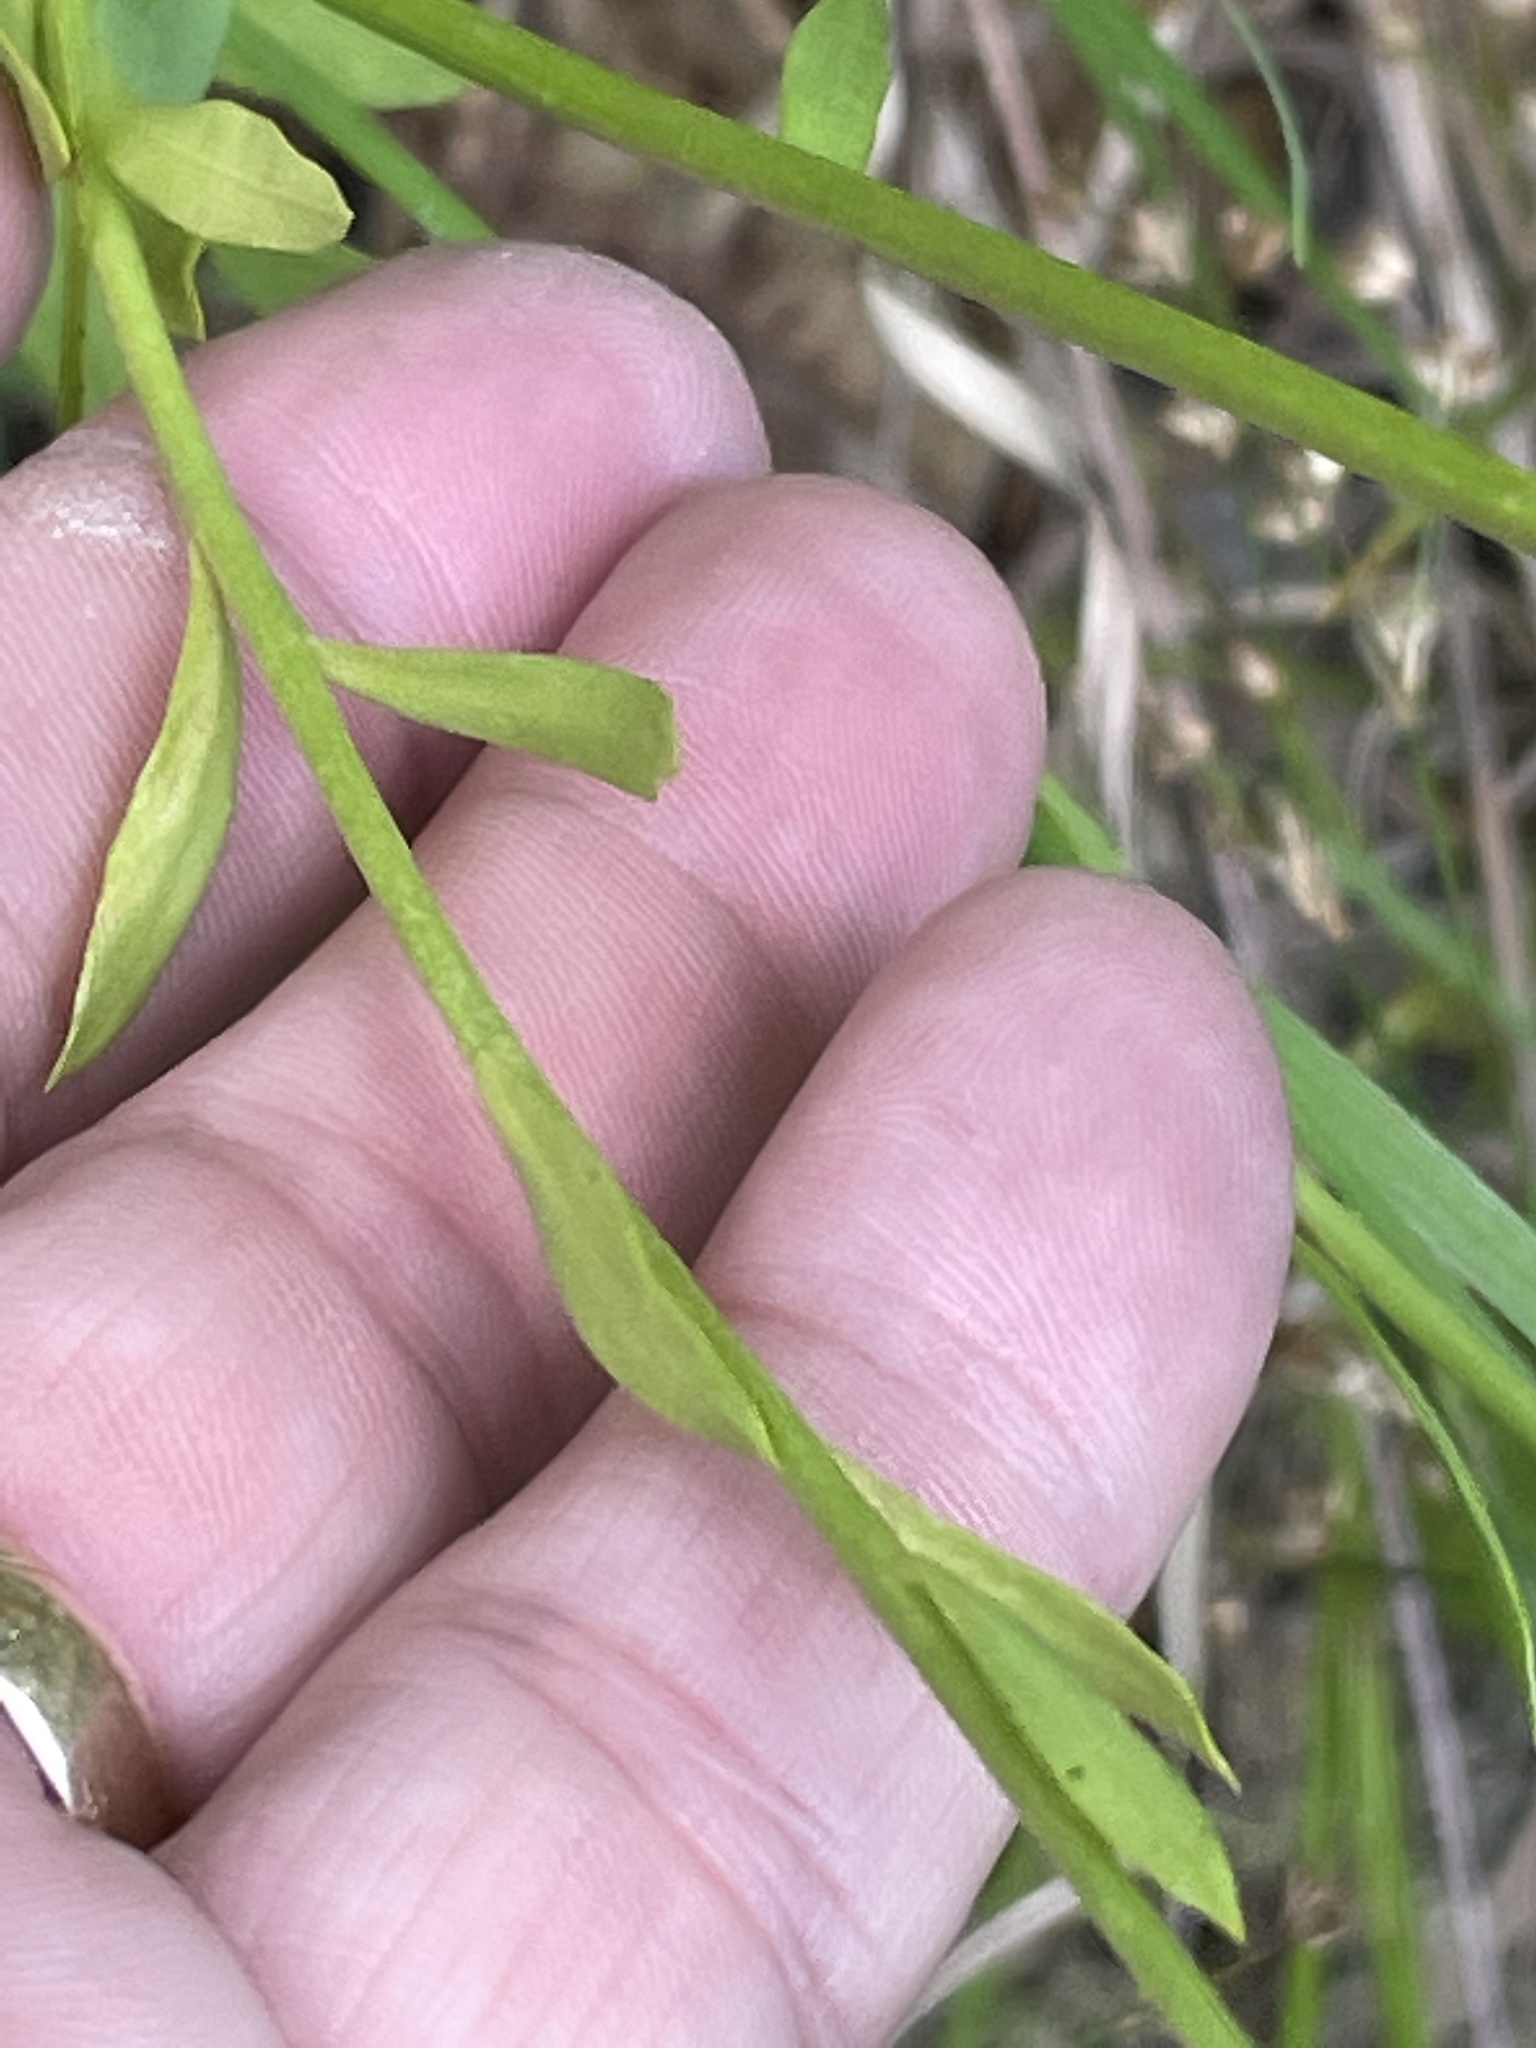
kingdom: Plantae
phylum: Tracheophyta
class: Magnoliopsida
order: Fabales
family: Polygalaceae
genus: Polygala
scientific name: Polygala lutea
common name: Orange milkwort
